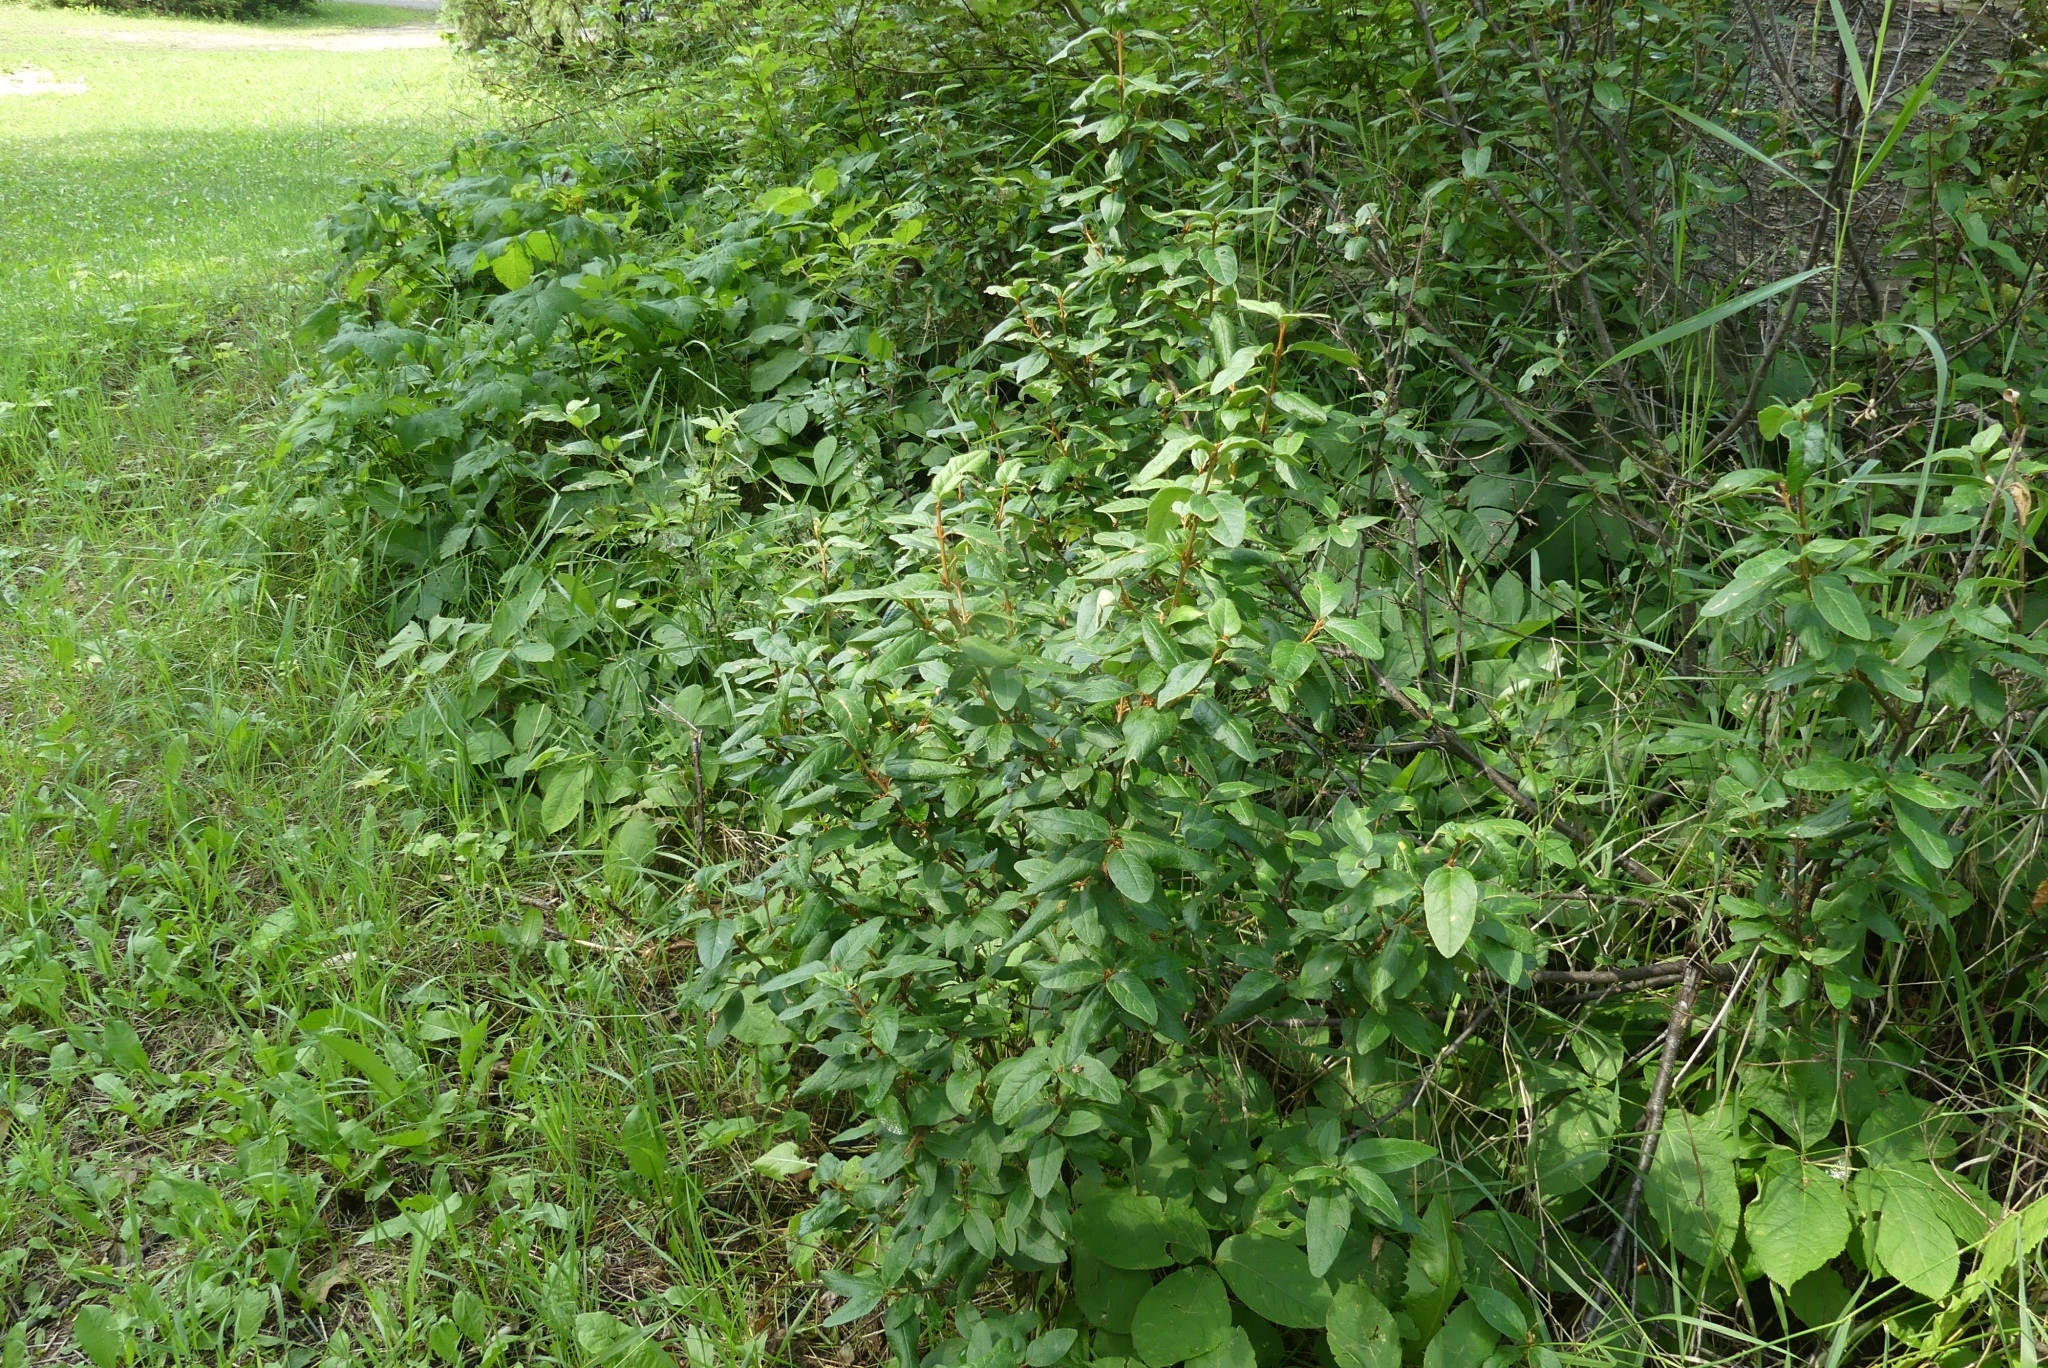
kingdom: Plantae
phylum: Tracheophyta
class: Magnoliopsida
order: Rosales
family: Elaeagnaceae
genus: Shepherdia
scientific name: Shepherdia canadensis
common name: Soapberry
